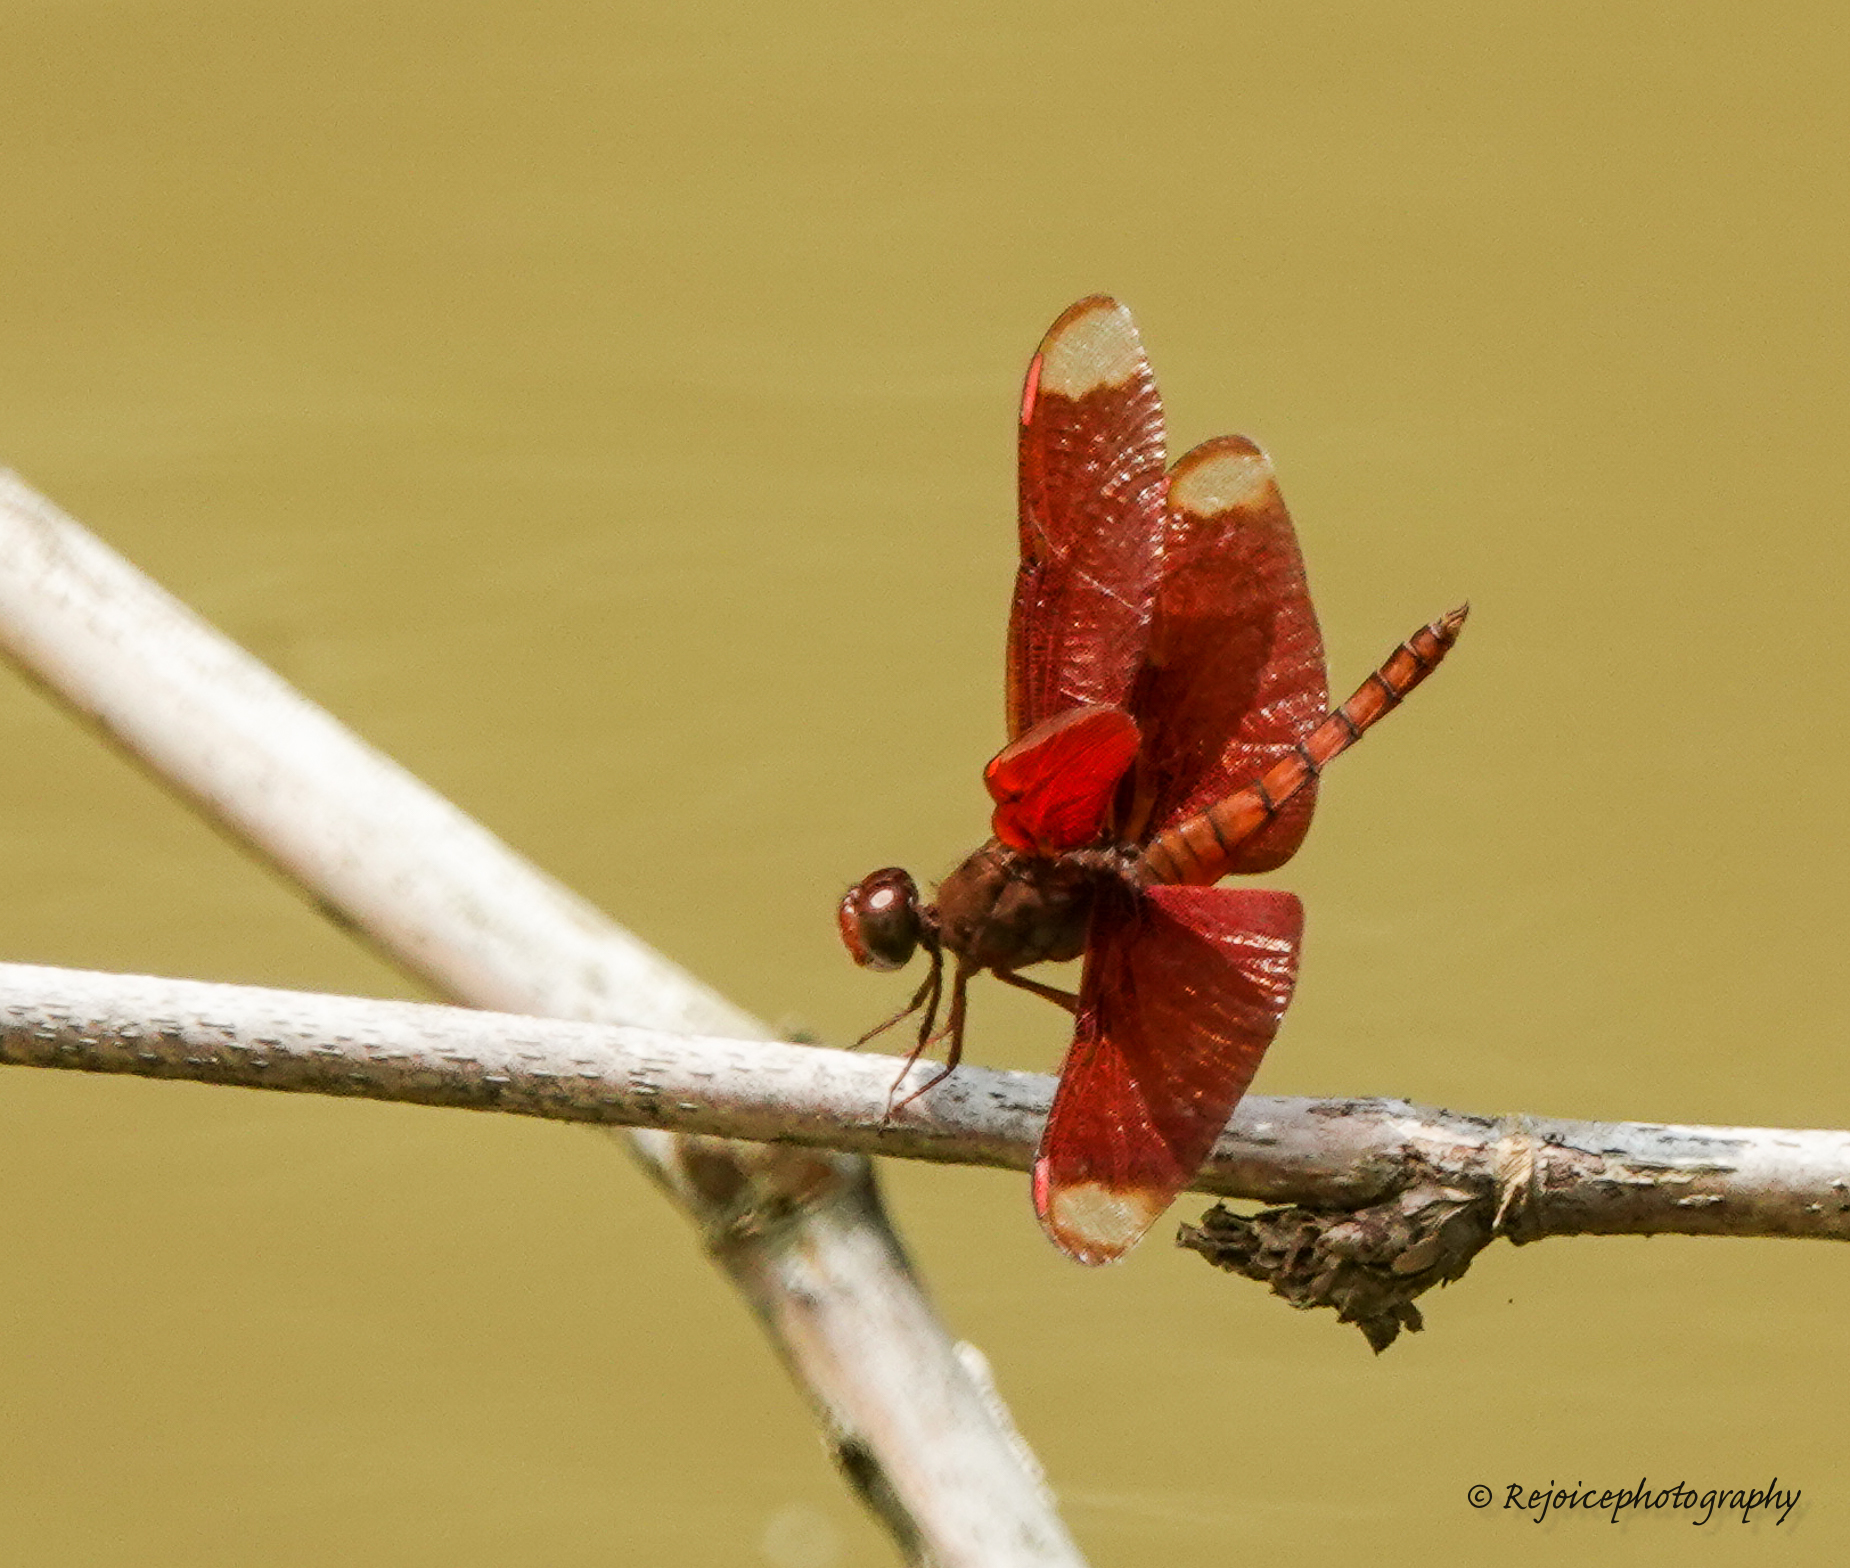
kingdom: Animalia
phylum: Arthropoda
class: Insecta
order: Odonata
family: Libellulidae
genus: Neurothemis
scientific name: Neurothemis fulvia
